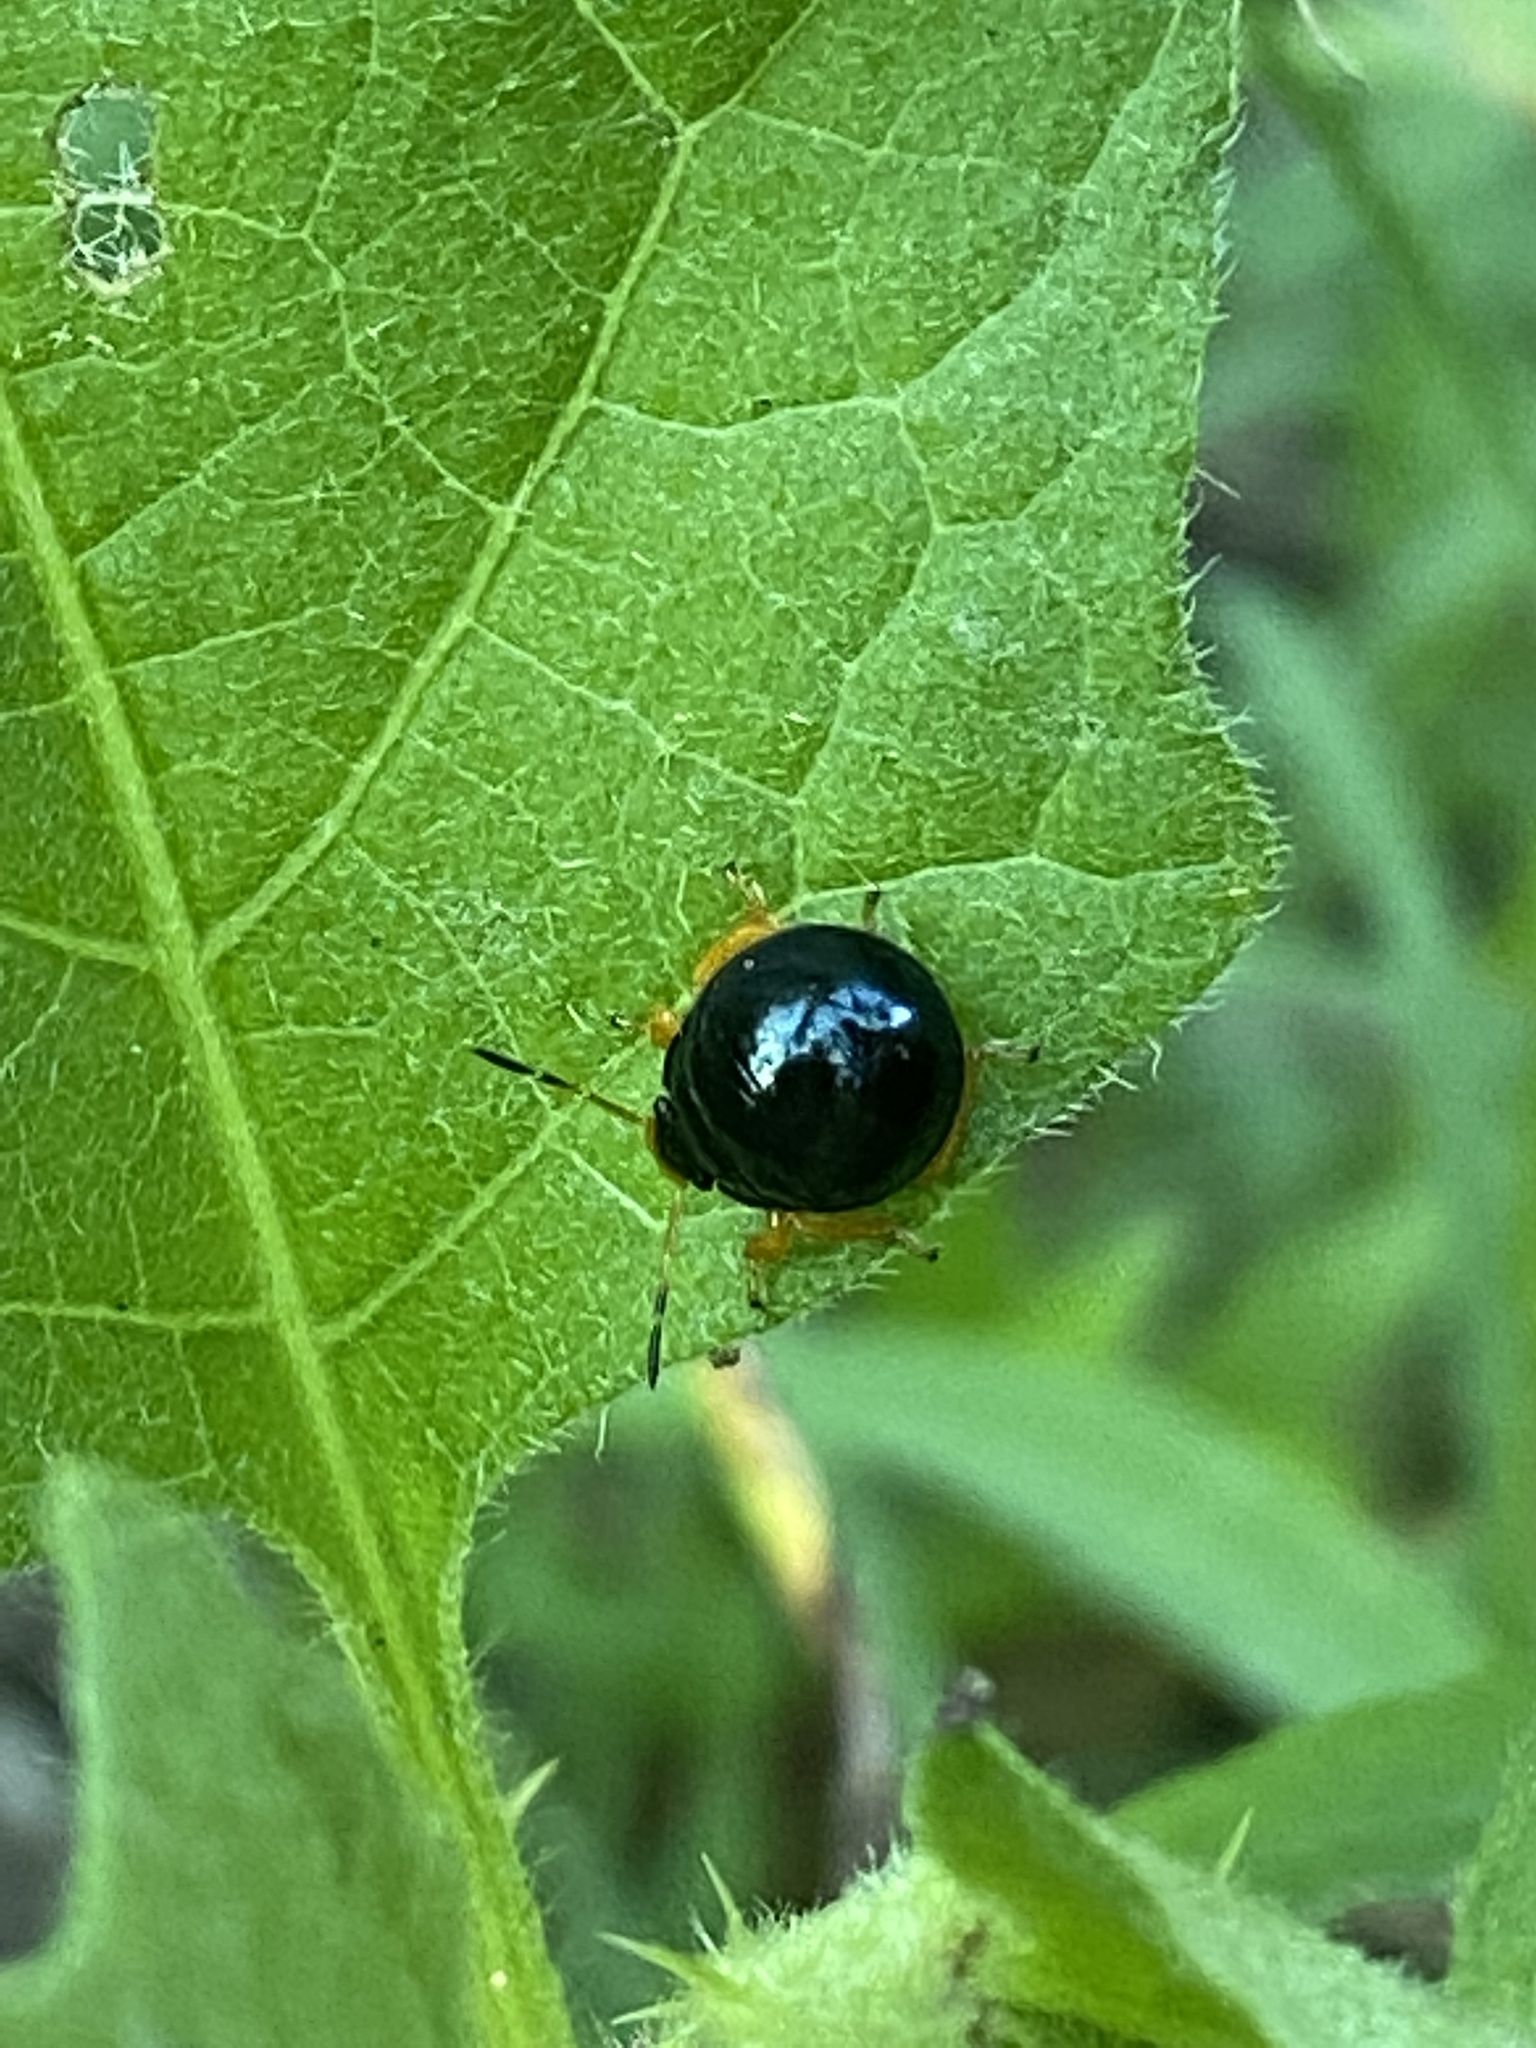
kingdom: Animalia
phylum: Arthropoda
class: Insecta
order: Hemiptera
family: Pentatomidae
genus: Stiretrus
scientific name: Stiretrus anchorago
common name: Anchor stink bug
